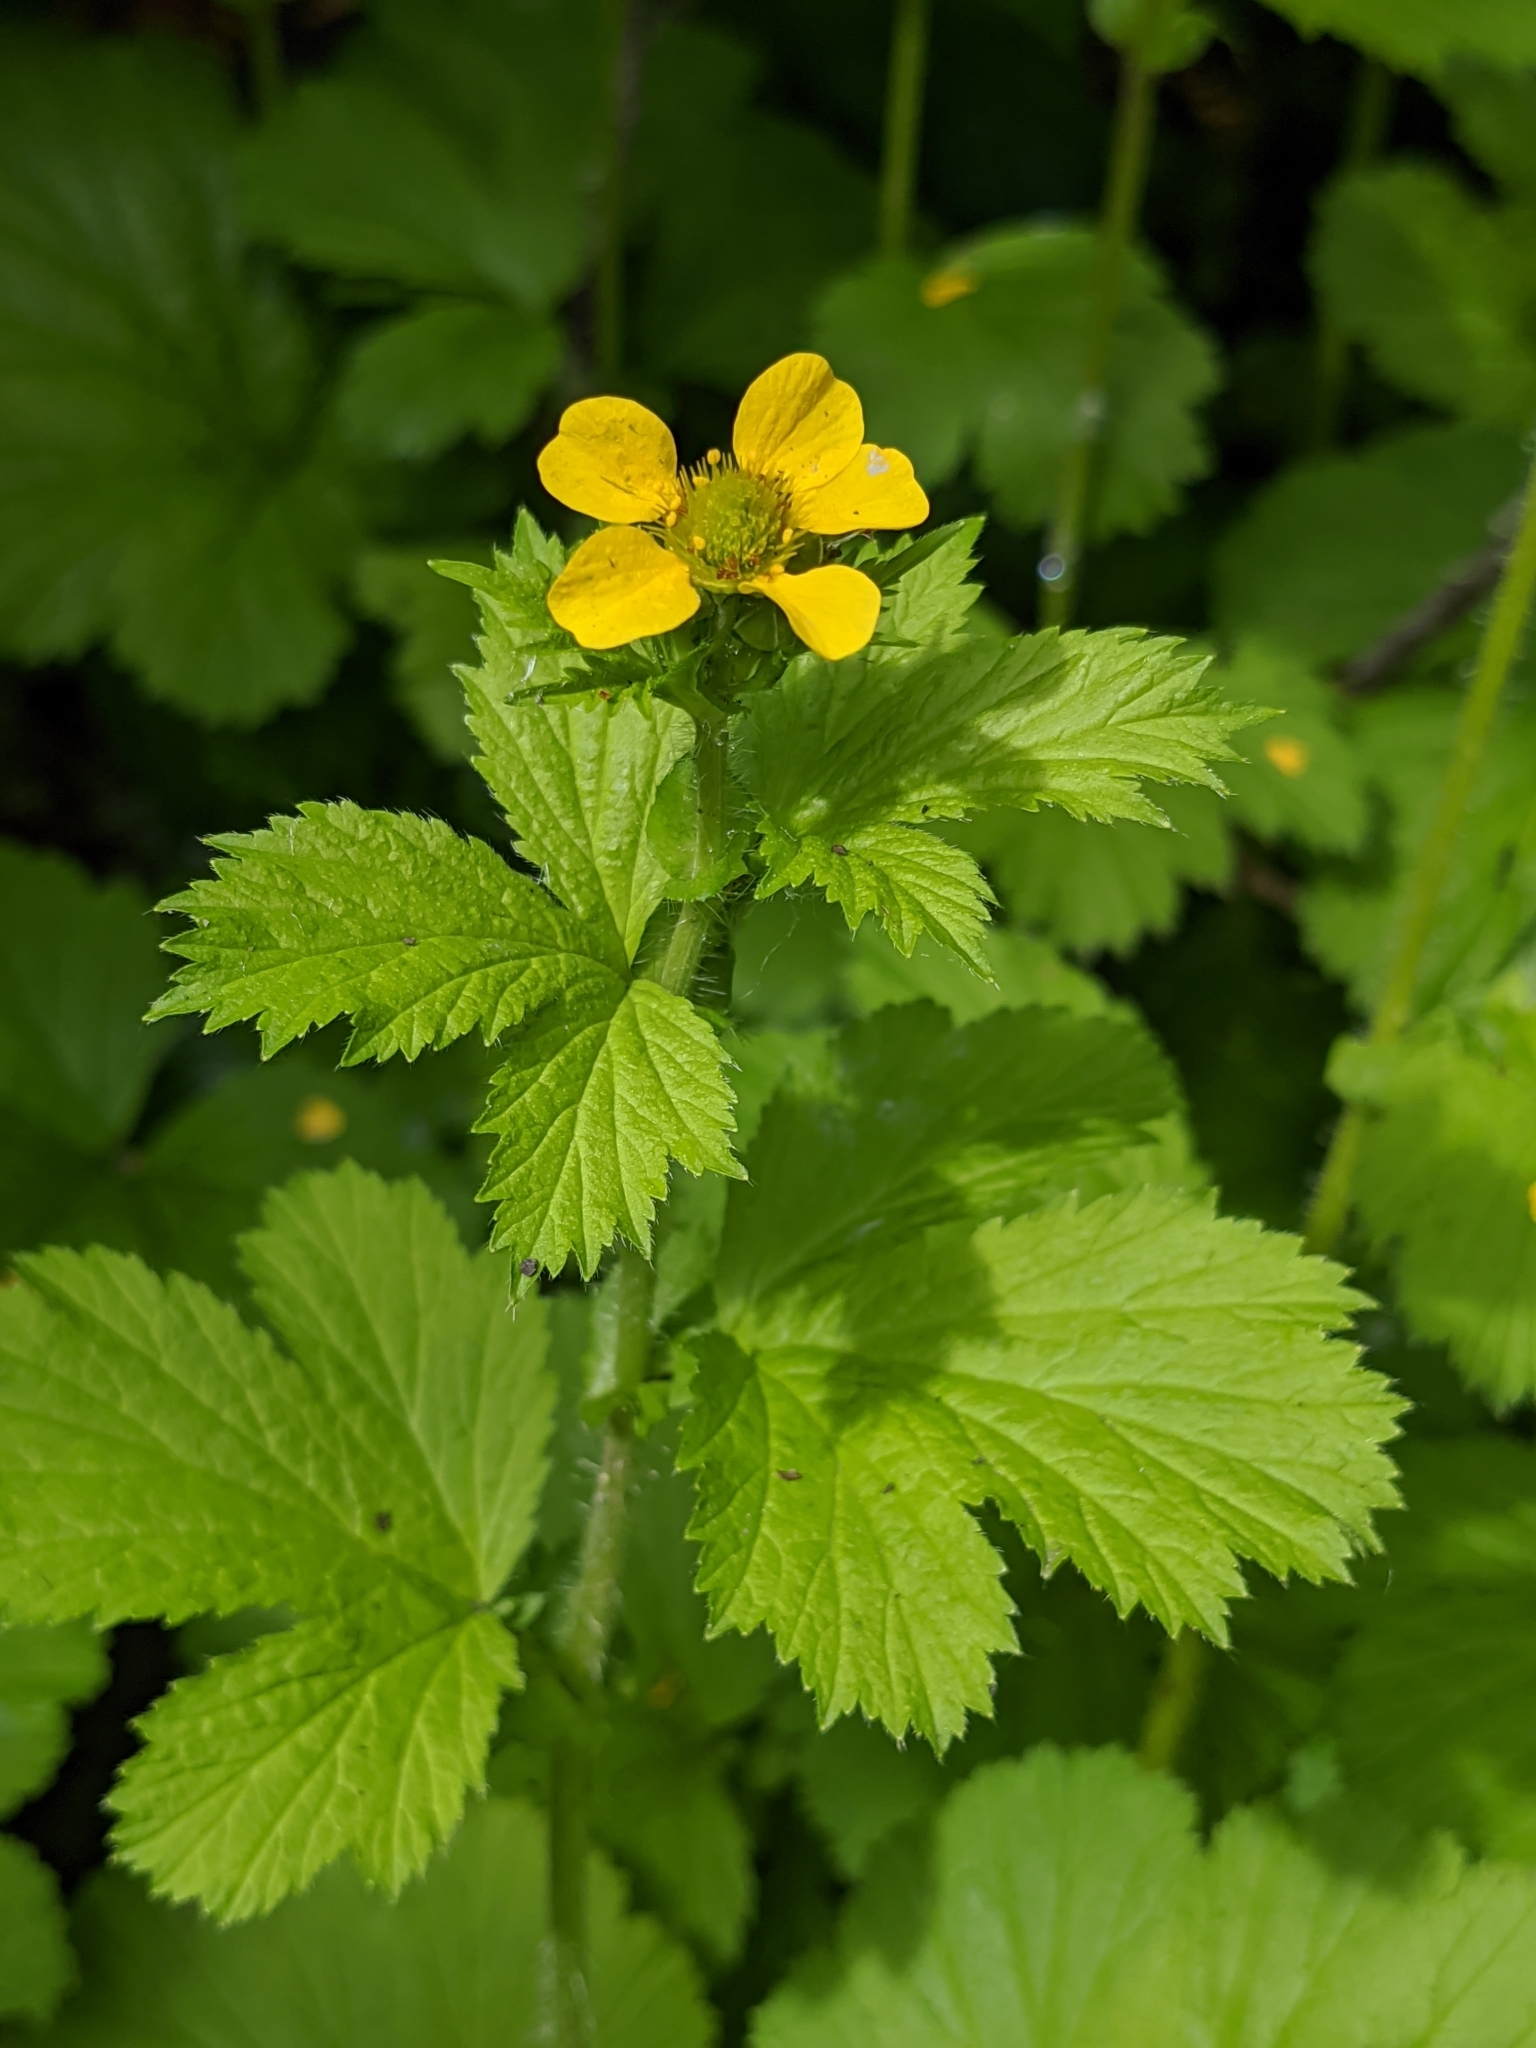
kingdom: Plantae
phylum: Tracheophyta
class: Magnoliopsida
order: Rosales
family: Rosaceae
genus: Geum
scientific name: Geum macrophyllum
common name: Large-leaved avens
